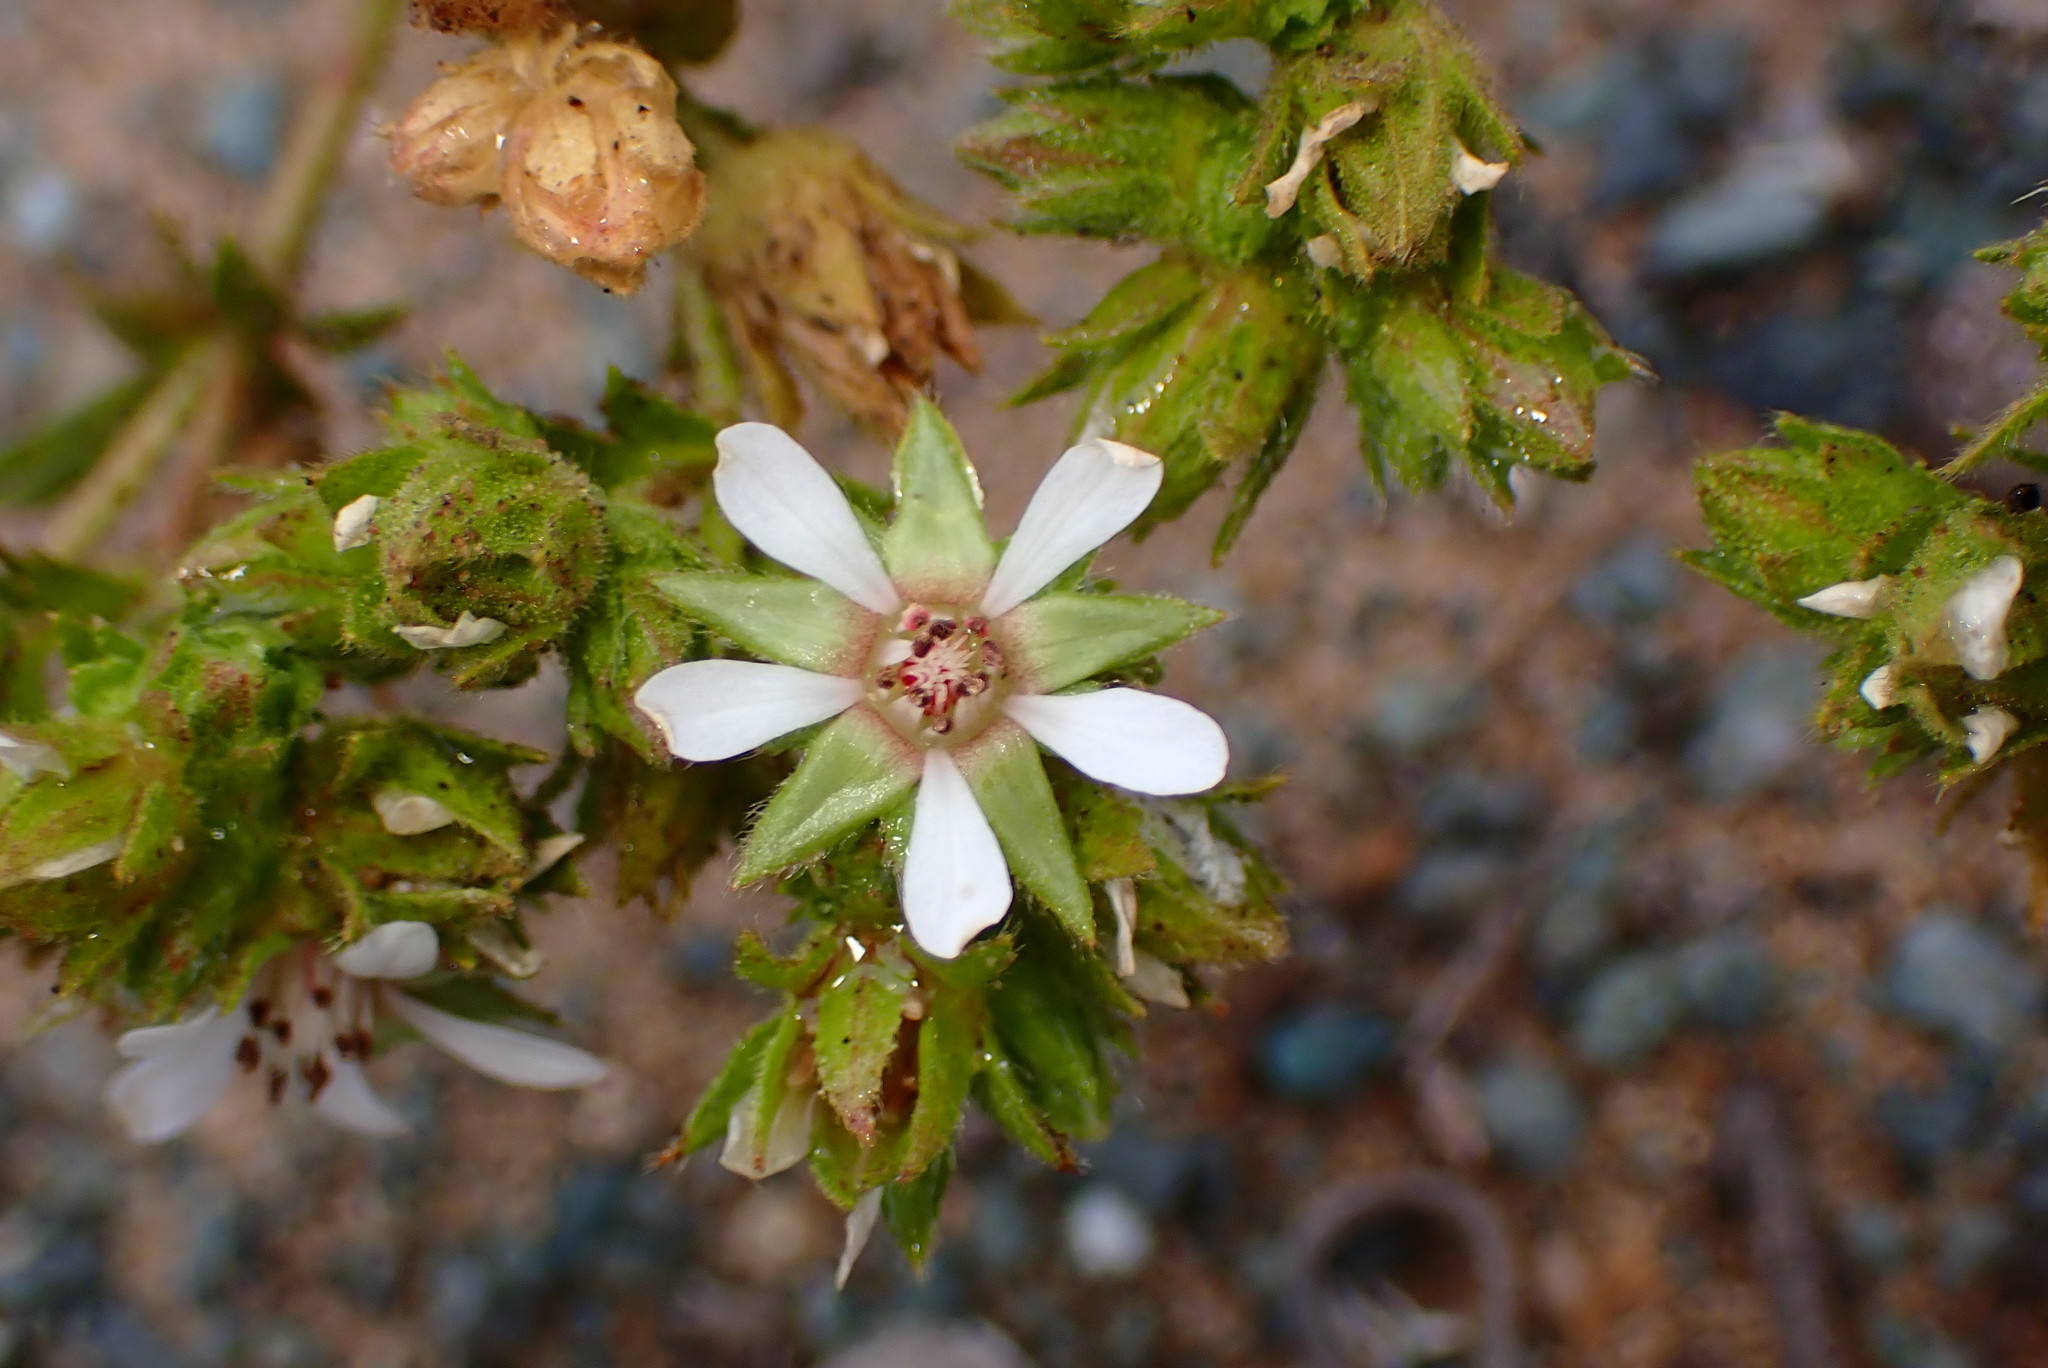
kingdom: Plantae
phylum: Tracheophyta
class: Magnoliopsida
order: Rosales
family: Rosaceae
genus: Potentilla
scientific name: Potentilla
